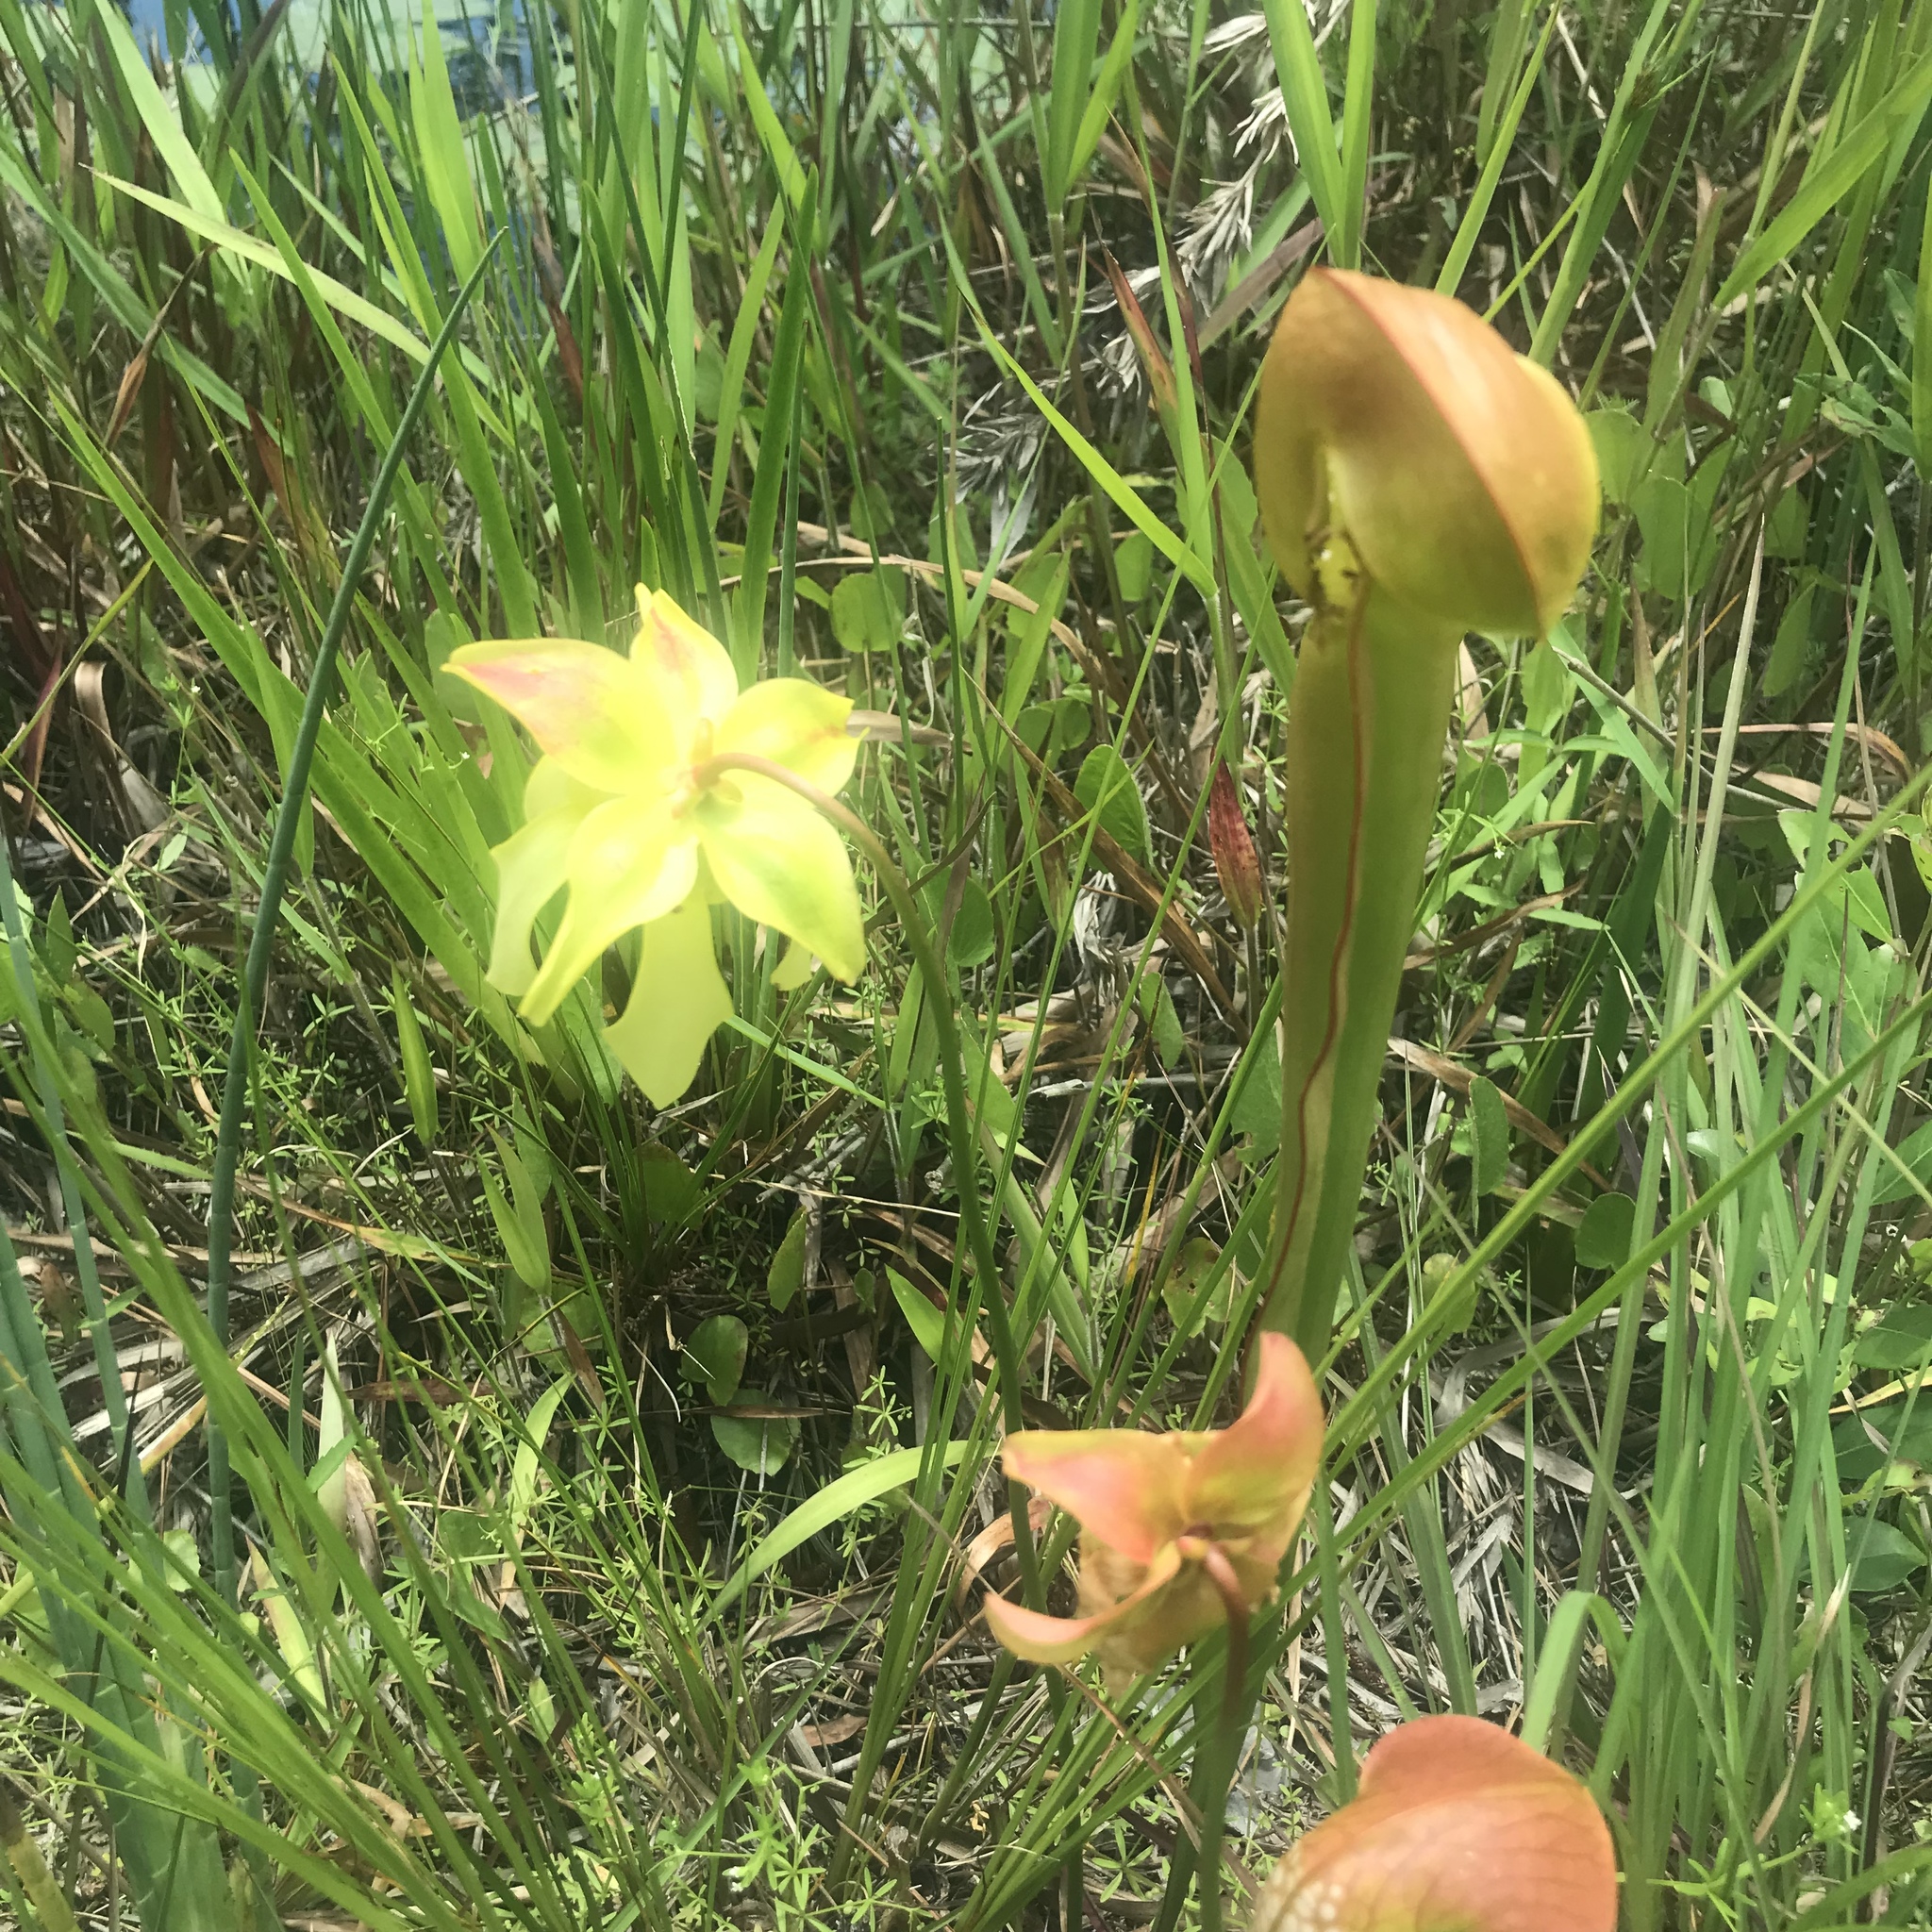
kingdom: Plantae
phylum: Tracheophyta
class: Magnoliopsida
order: Ericales
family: Sarraceniaceae
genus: Sarracenia
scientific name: Sarracenia minor
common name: Rainhat-trumpet
